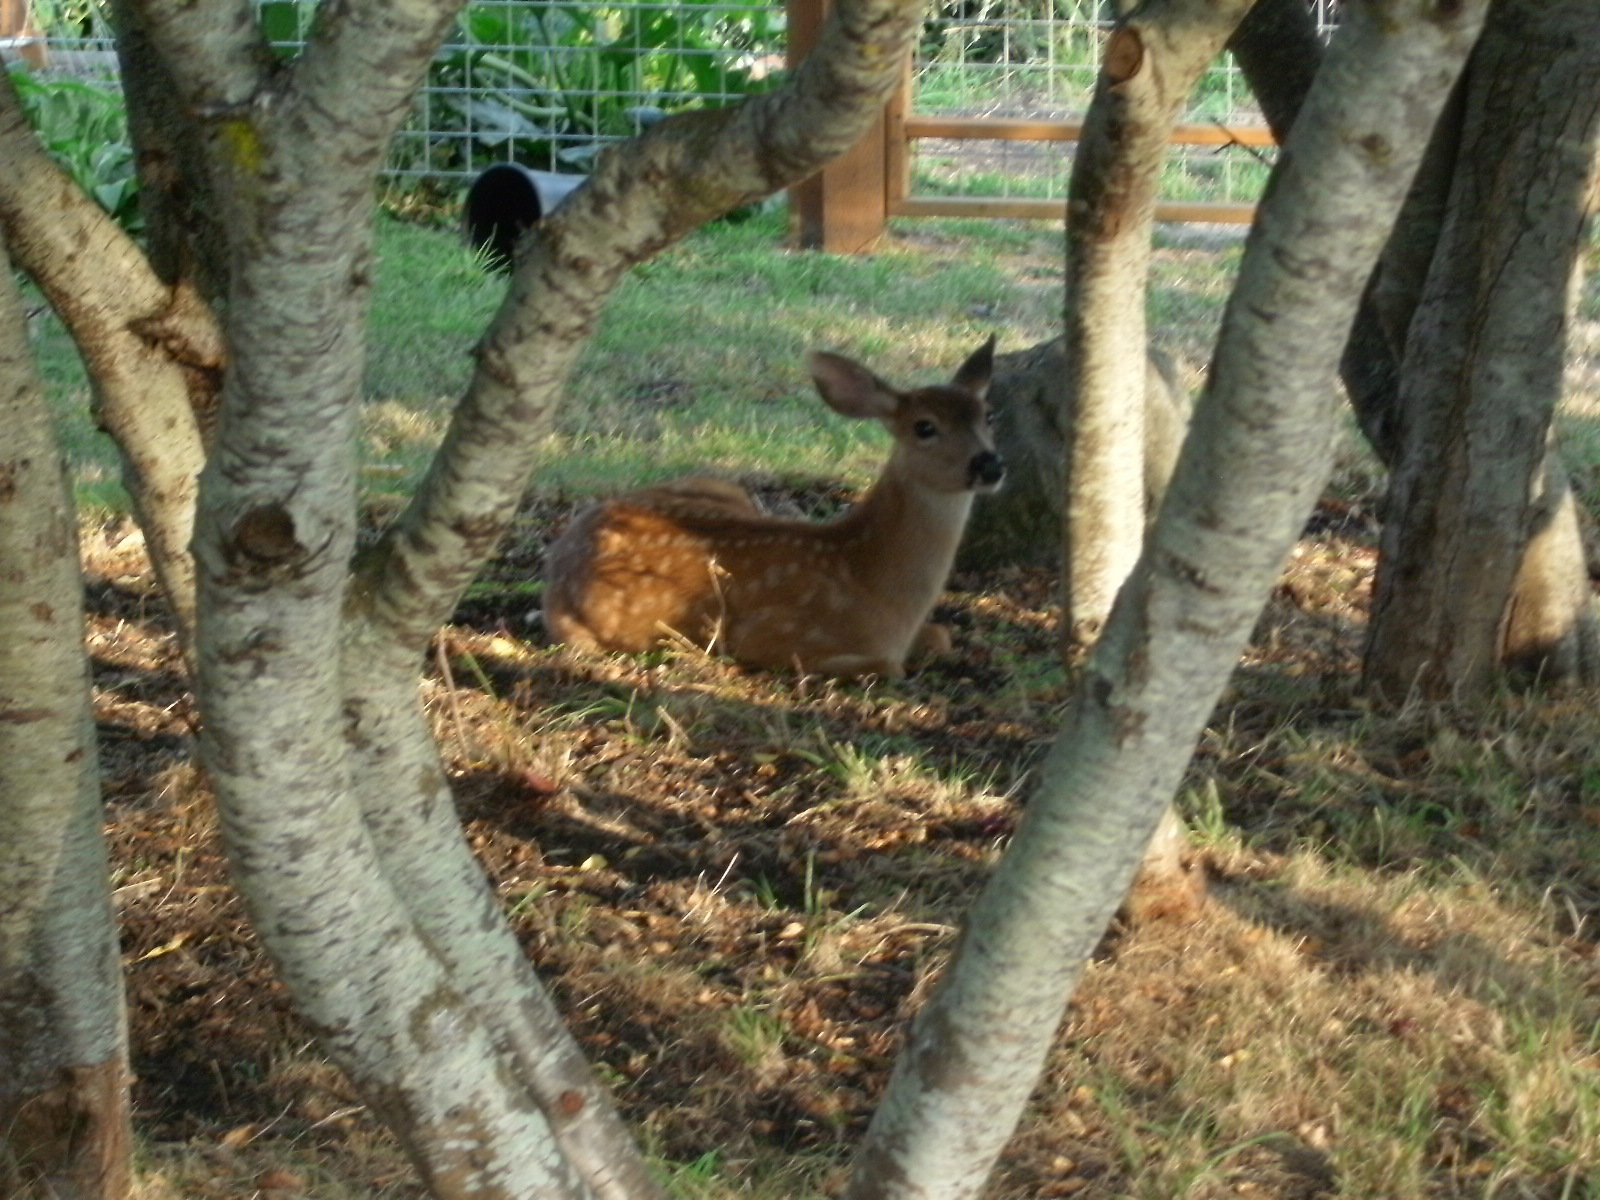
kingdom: Animalia
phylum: Chordata
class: Mammalia
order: Artiodactyla
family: Cervidae
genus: Odocoileus
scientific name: Odocoileus hemionus
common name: Mule deer
